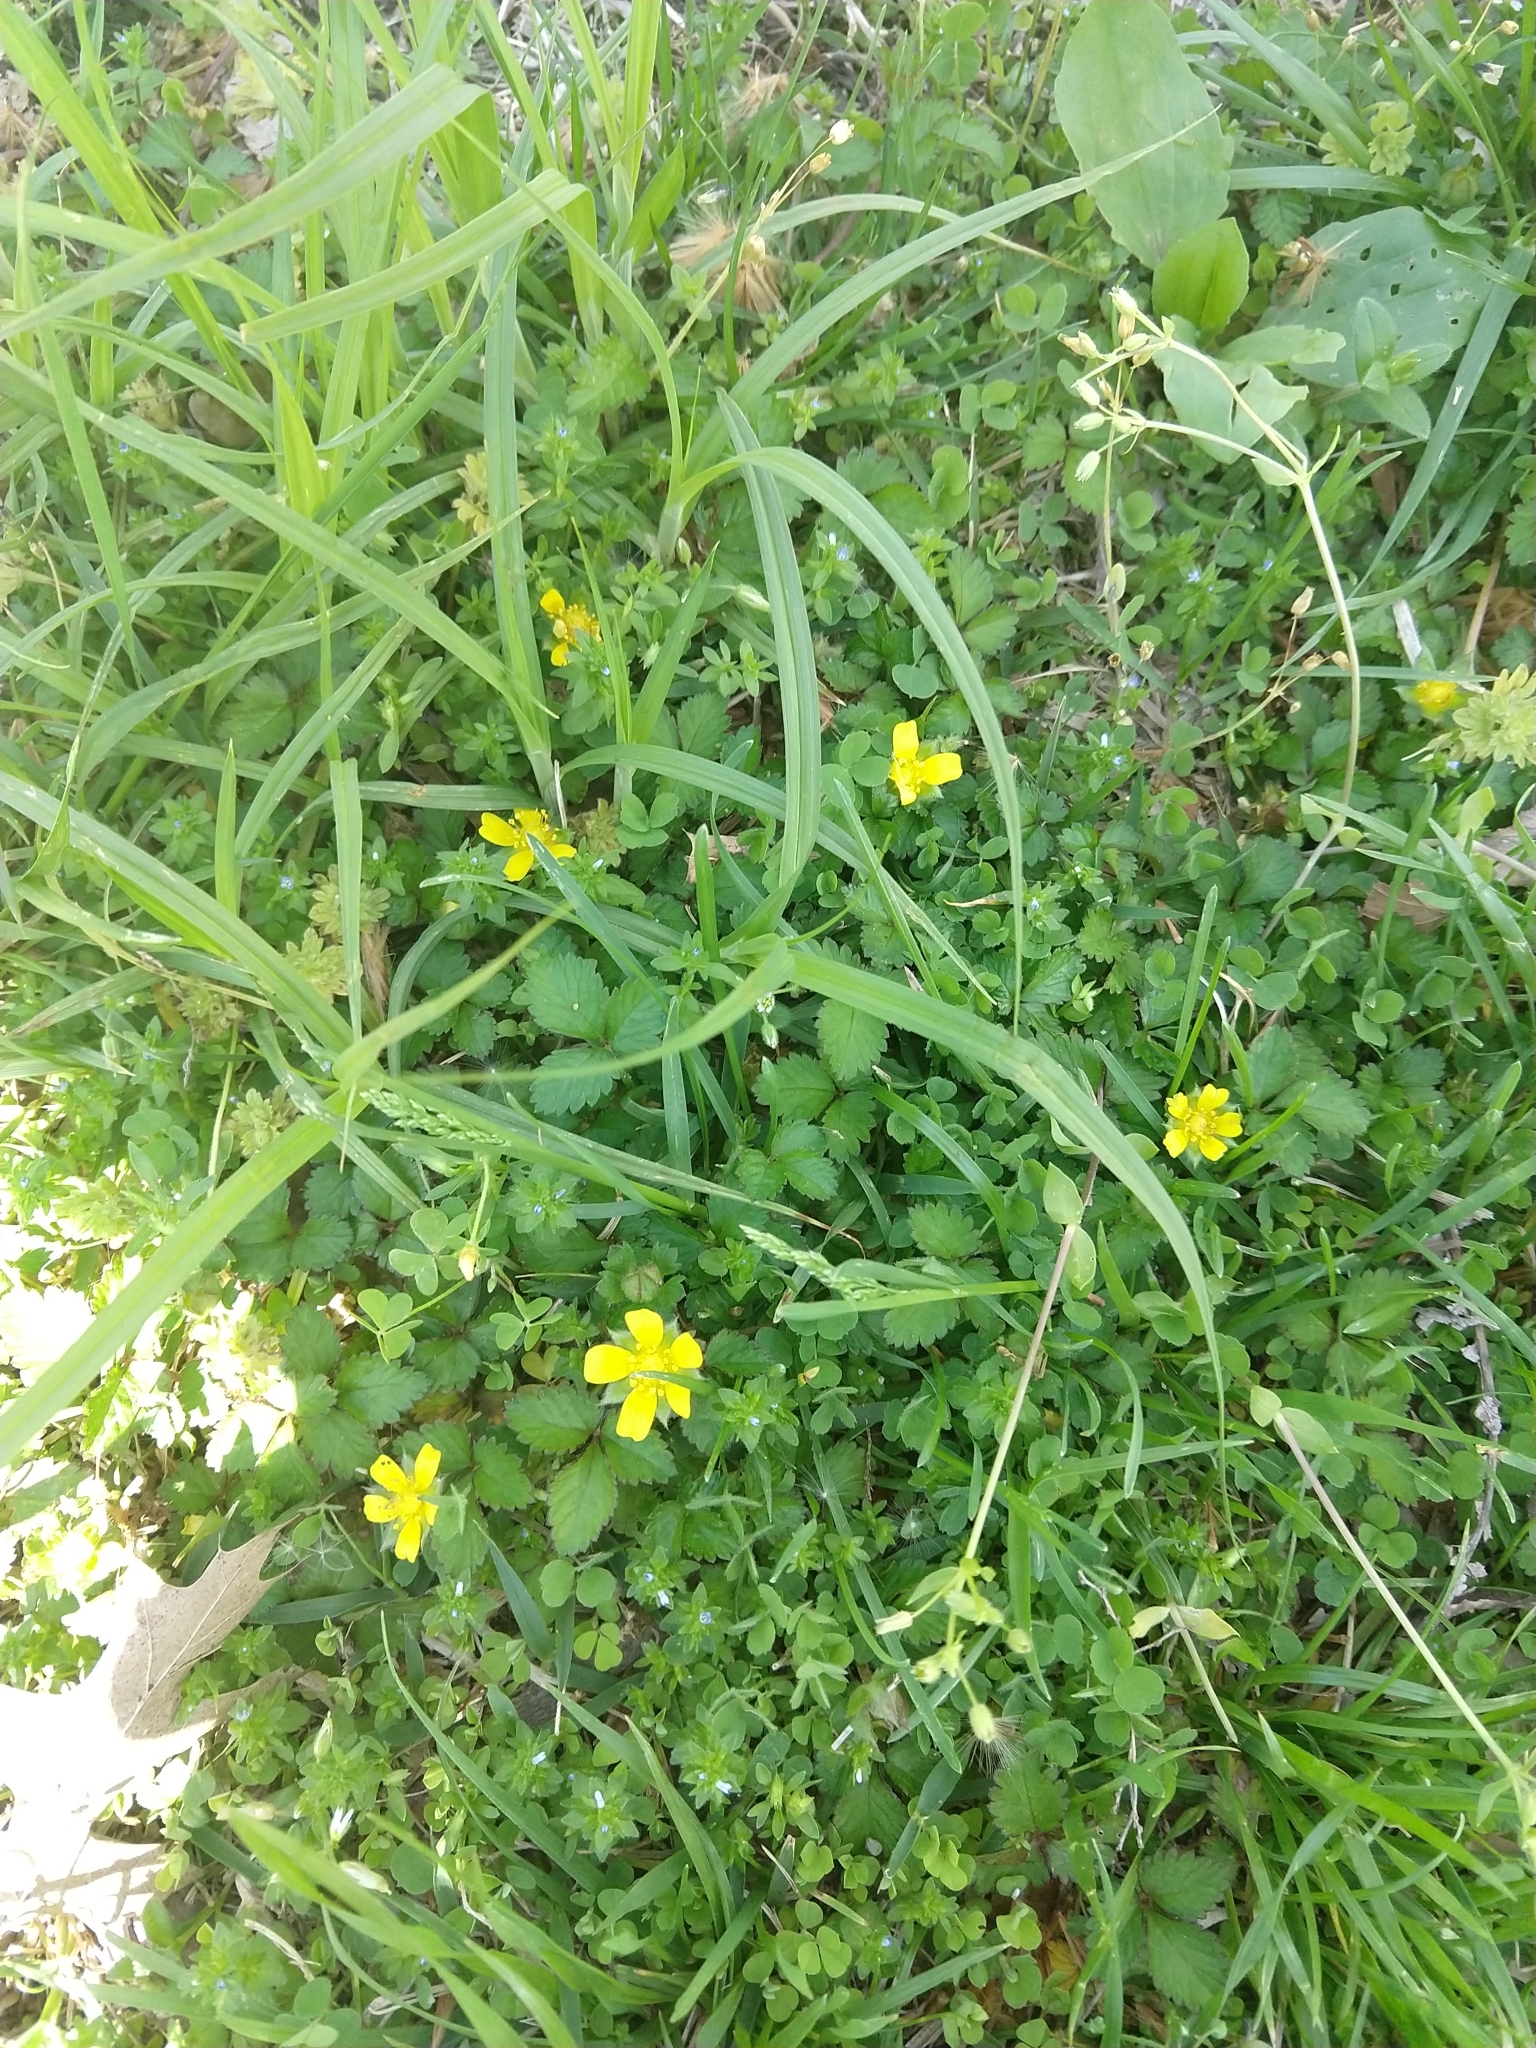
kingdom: Plantae
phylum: Tracheophyta
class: Magnoliopsida
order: Rosales
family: Rosaceae
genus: Potentilla
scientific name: Potentilla indica
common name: Yellow-flowered strawberry
